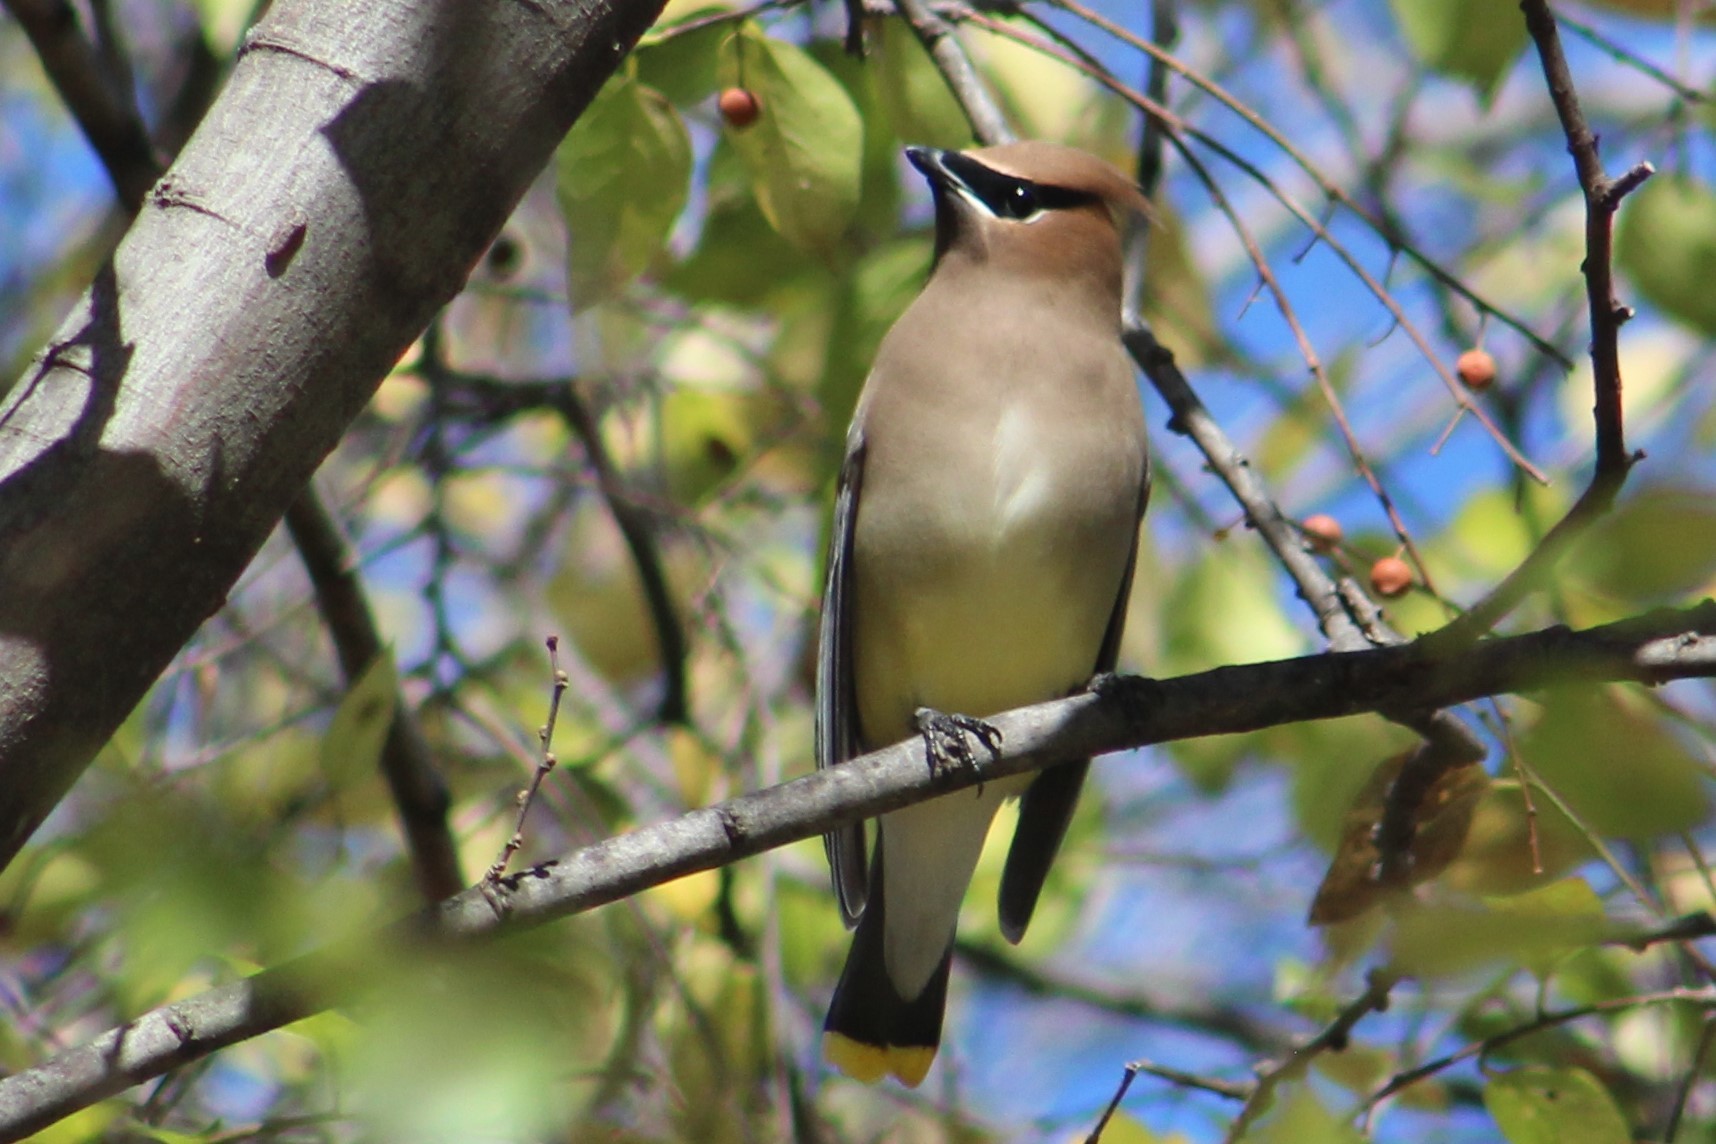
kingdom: Animalia
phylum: Chordata
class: Aves
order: Passeriformes
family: Bombycillidae
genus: Bombycilla
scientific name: Bombycilla cedrorum
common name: Cedar waxwing
